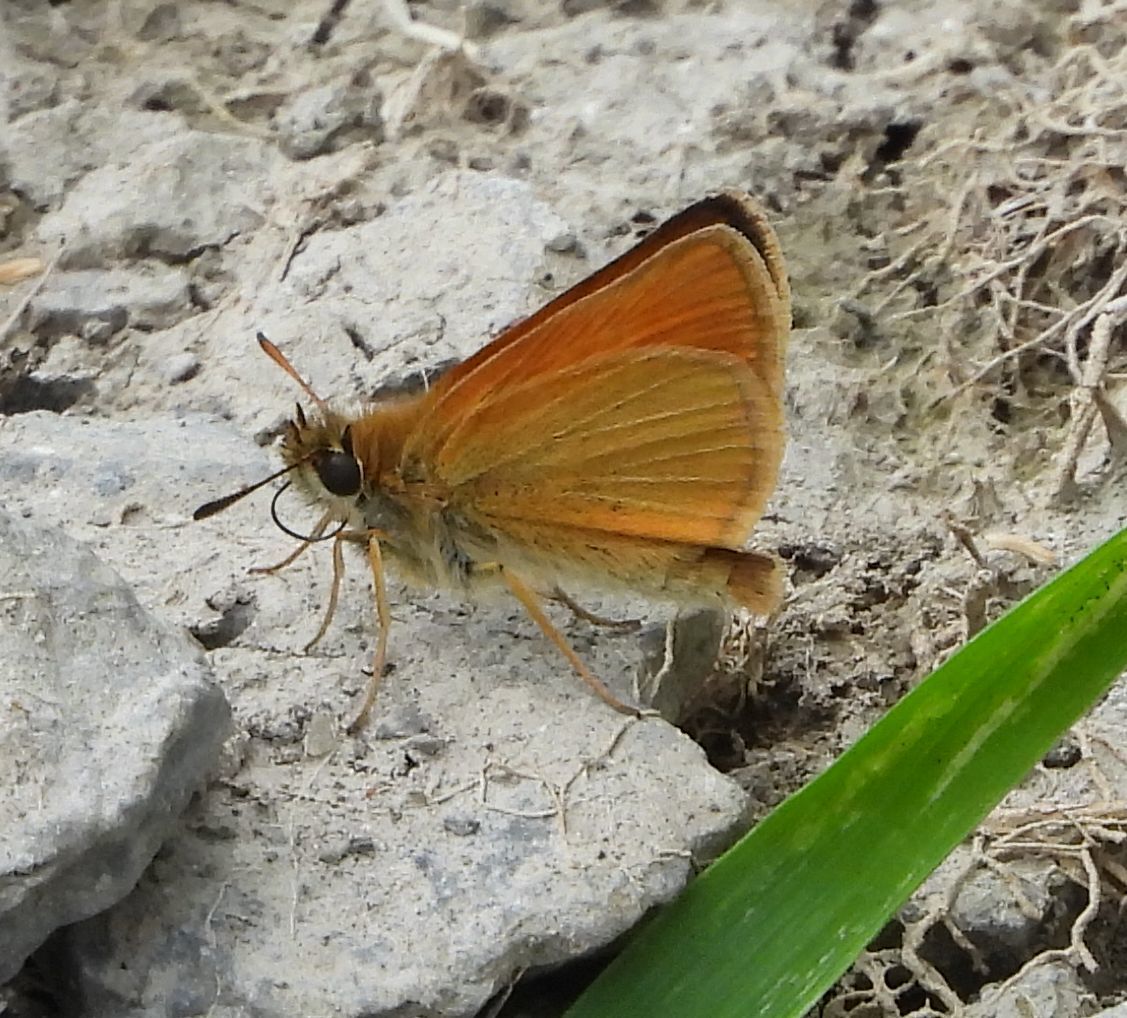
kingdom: Animalia
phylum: Arthropoda
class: Insecta
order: Lepidoptera
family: Hesperiidae
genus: Thymelicus
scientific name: Thymelicus lineola
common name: Essex skipper
